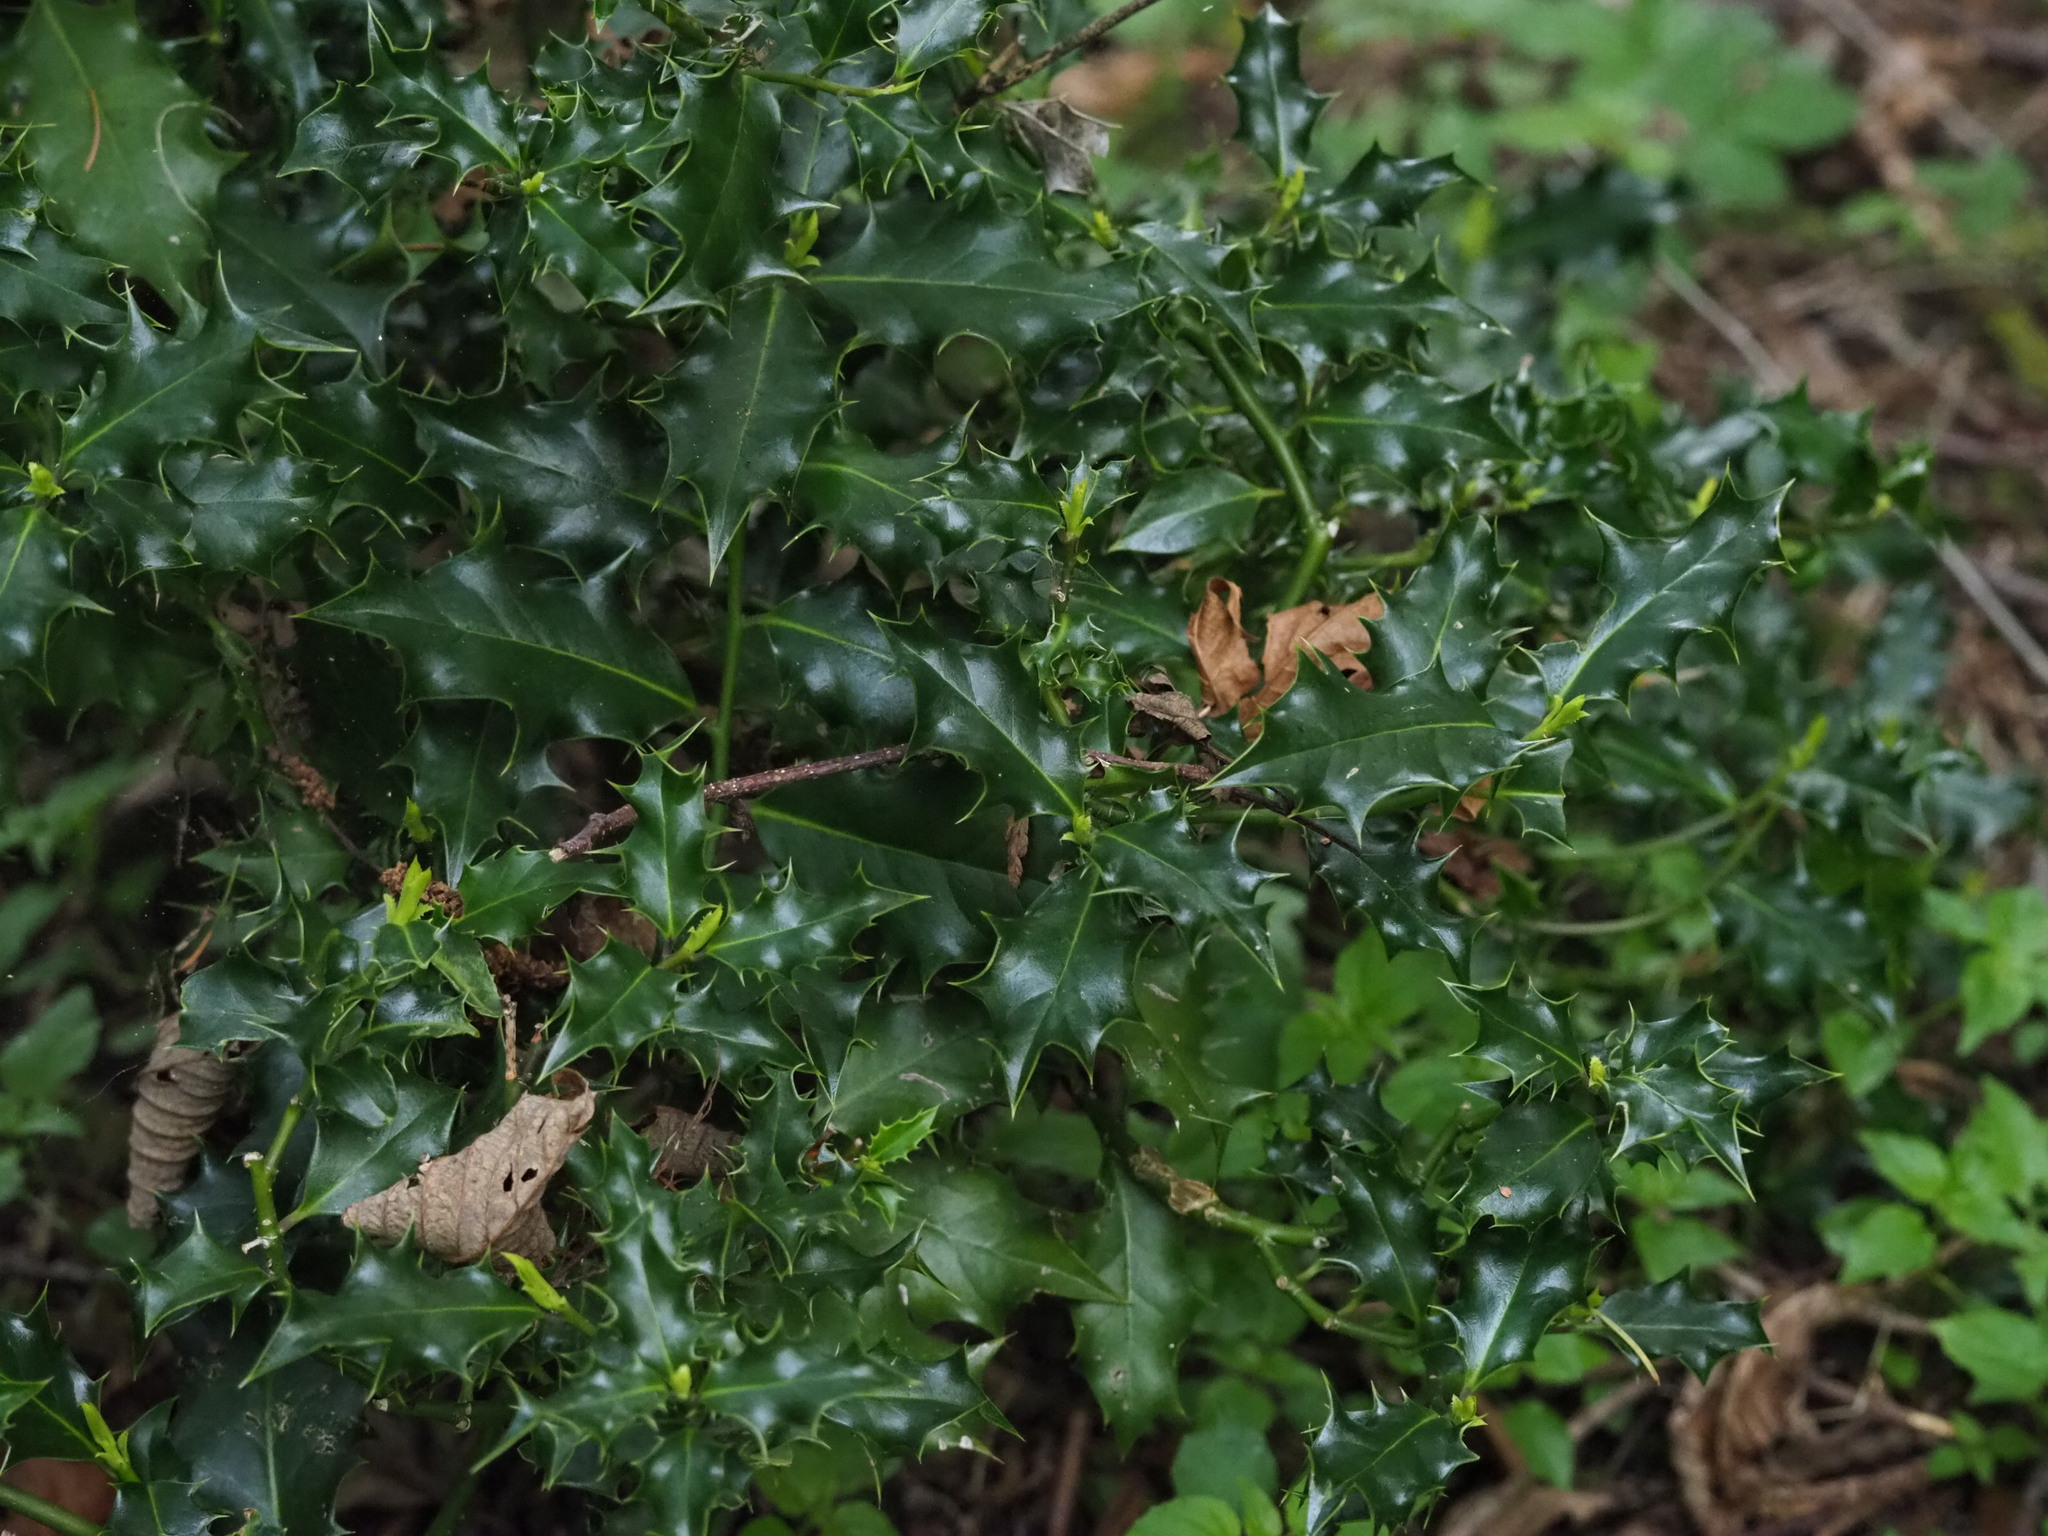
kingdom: Plantae
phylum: Tracheophyta
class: Magnoliopsida
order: Aquifoliales
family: Aquifoliaceae
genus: Ilex
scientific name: Ilex aquifolium
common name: English holly
